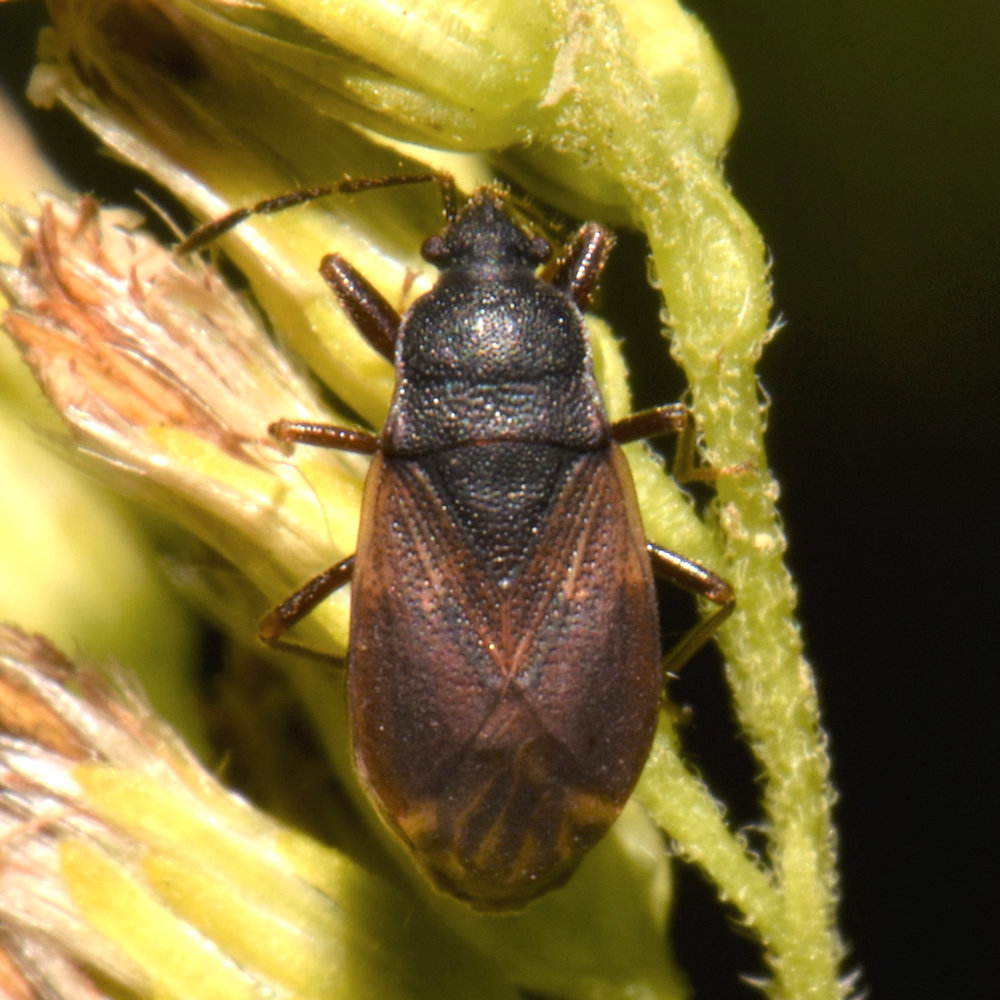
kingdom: Animalia
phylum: Arthropoda
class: Insecta
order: Hemiptera
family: Rhyparochromidae
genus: Drymus
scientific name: Drymus unus
